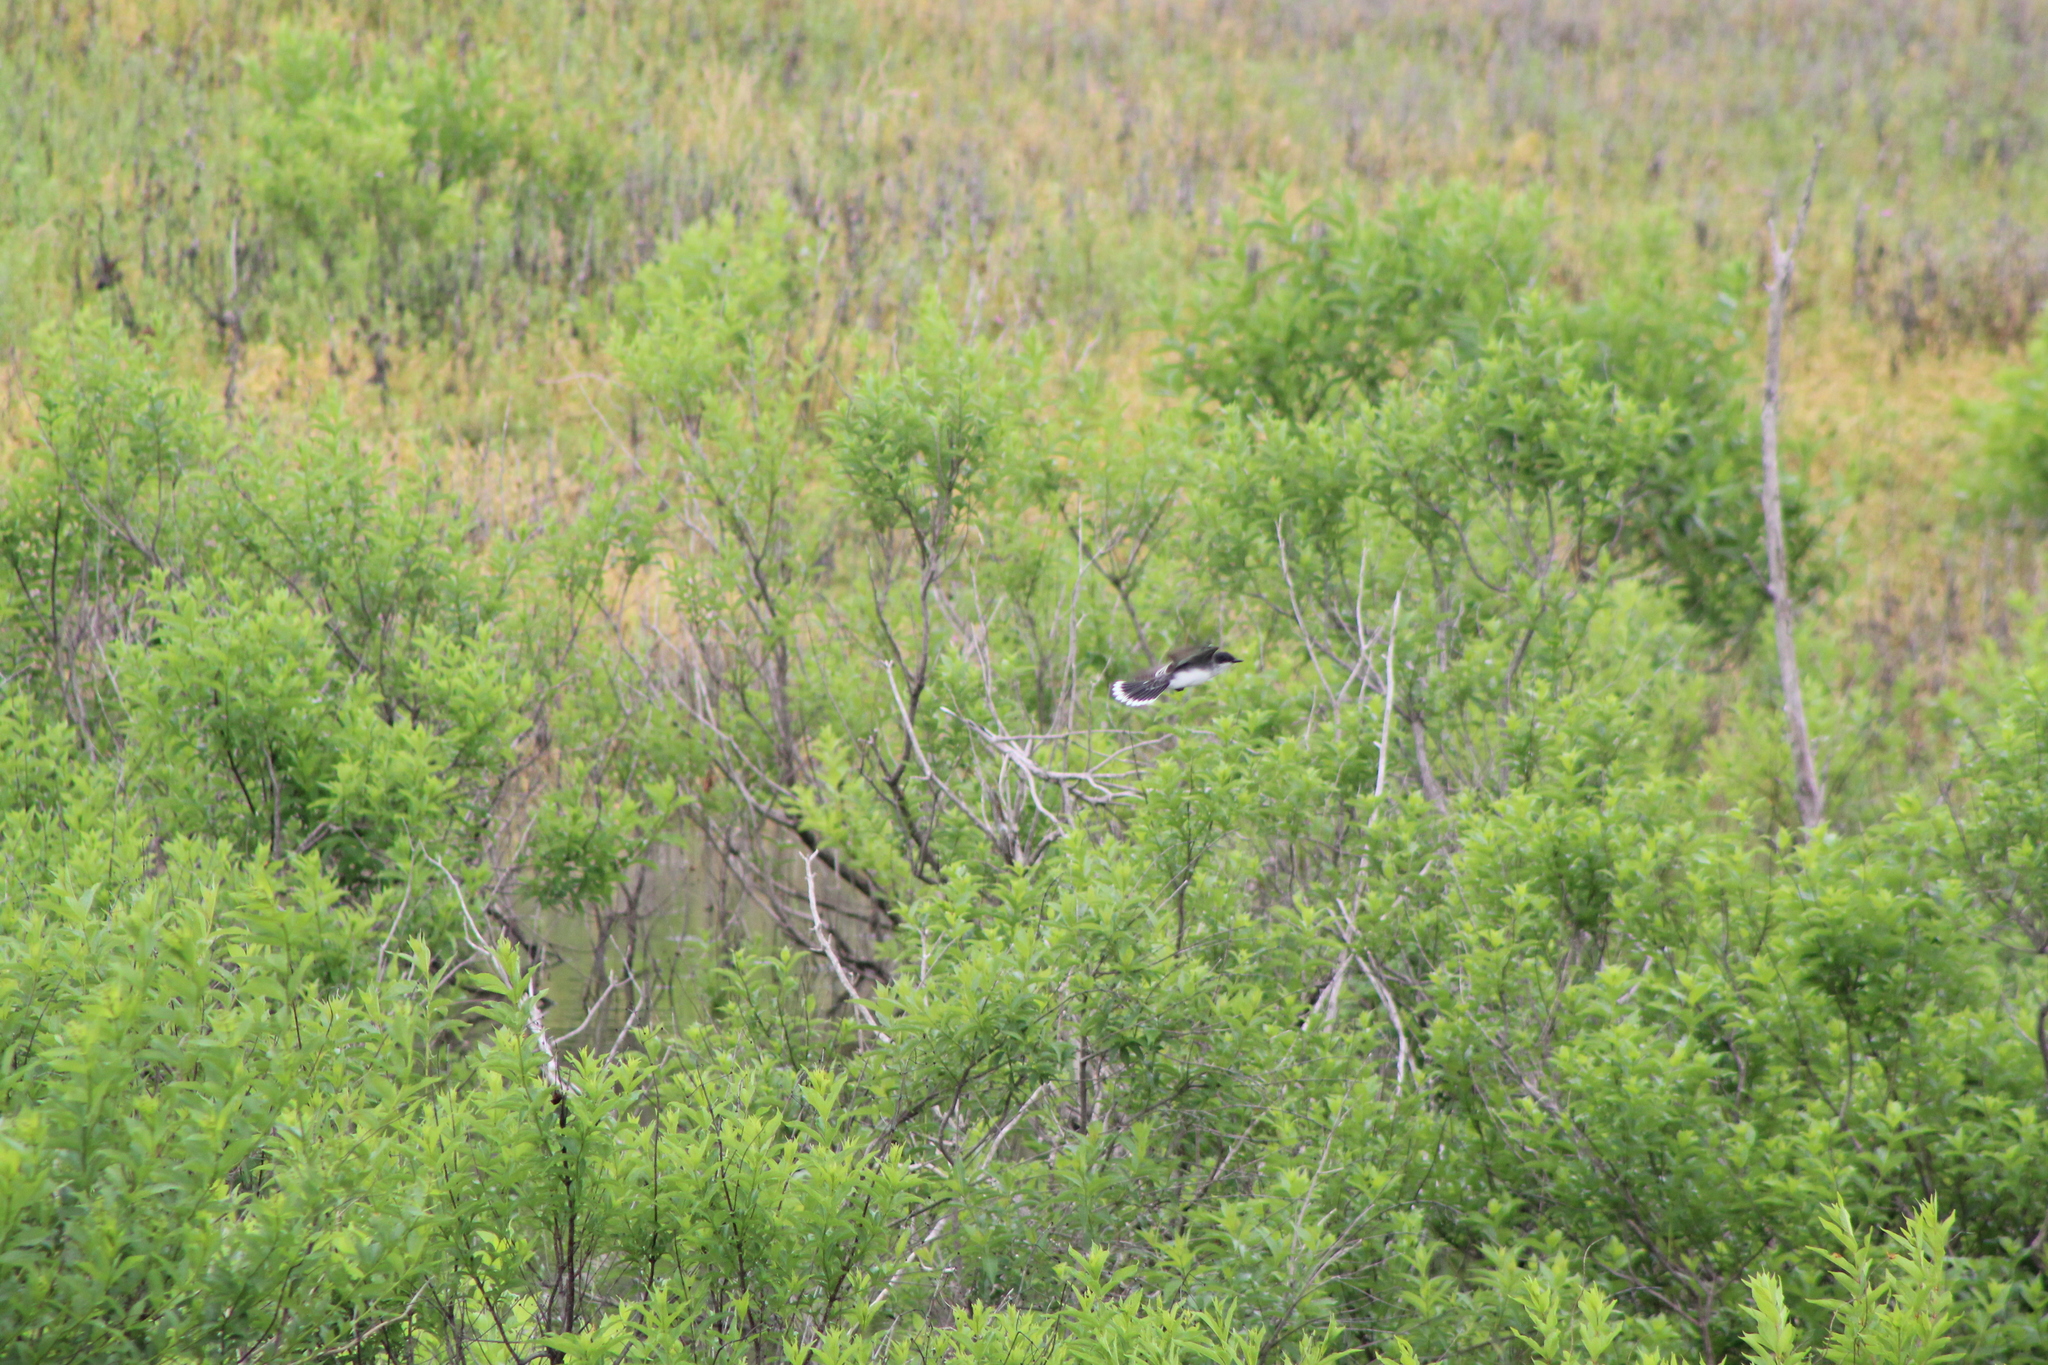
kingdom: Animalia
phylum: Chordata
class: Aves
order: Passeriformes
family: Tyrannidae
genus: Tyrannus
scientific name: Tyrannus tyrannus
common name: Eastern kingbird
